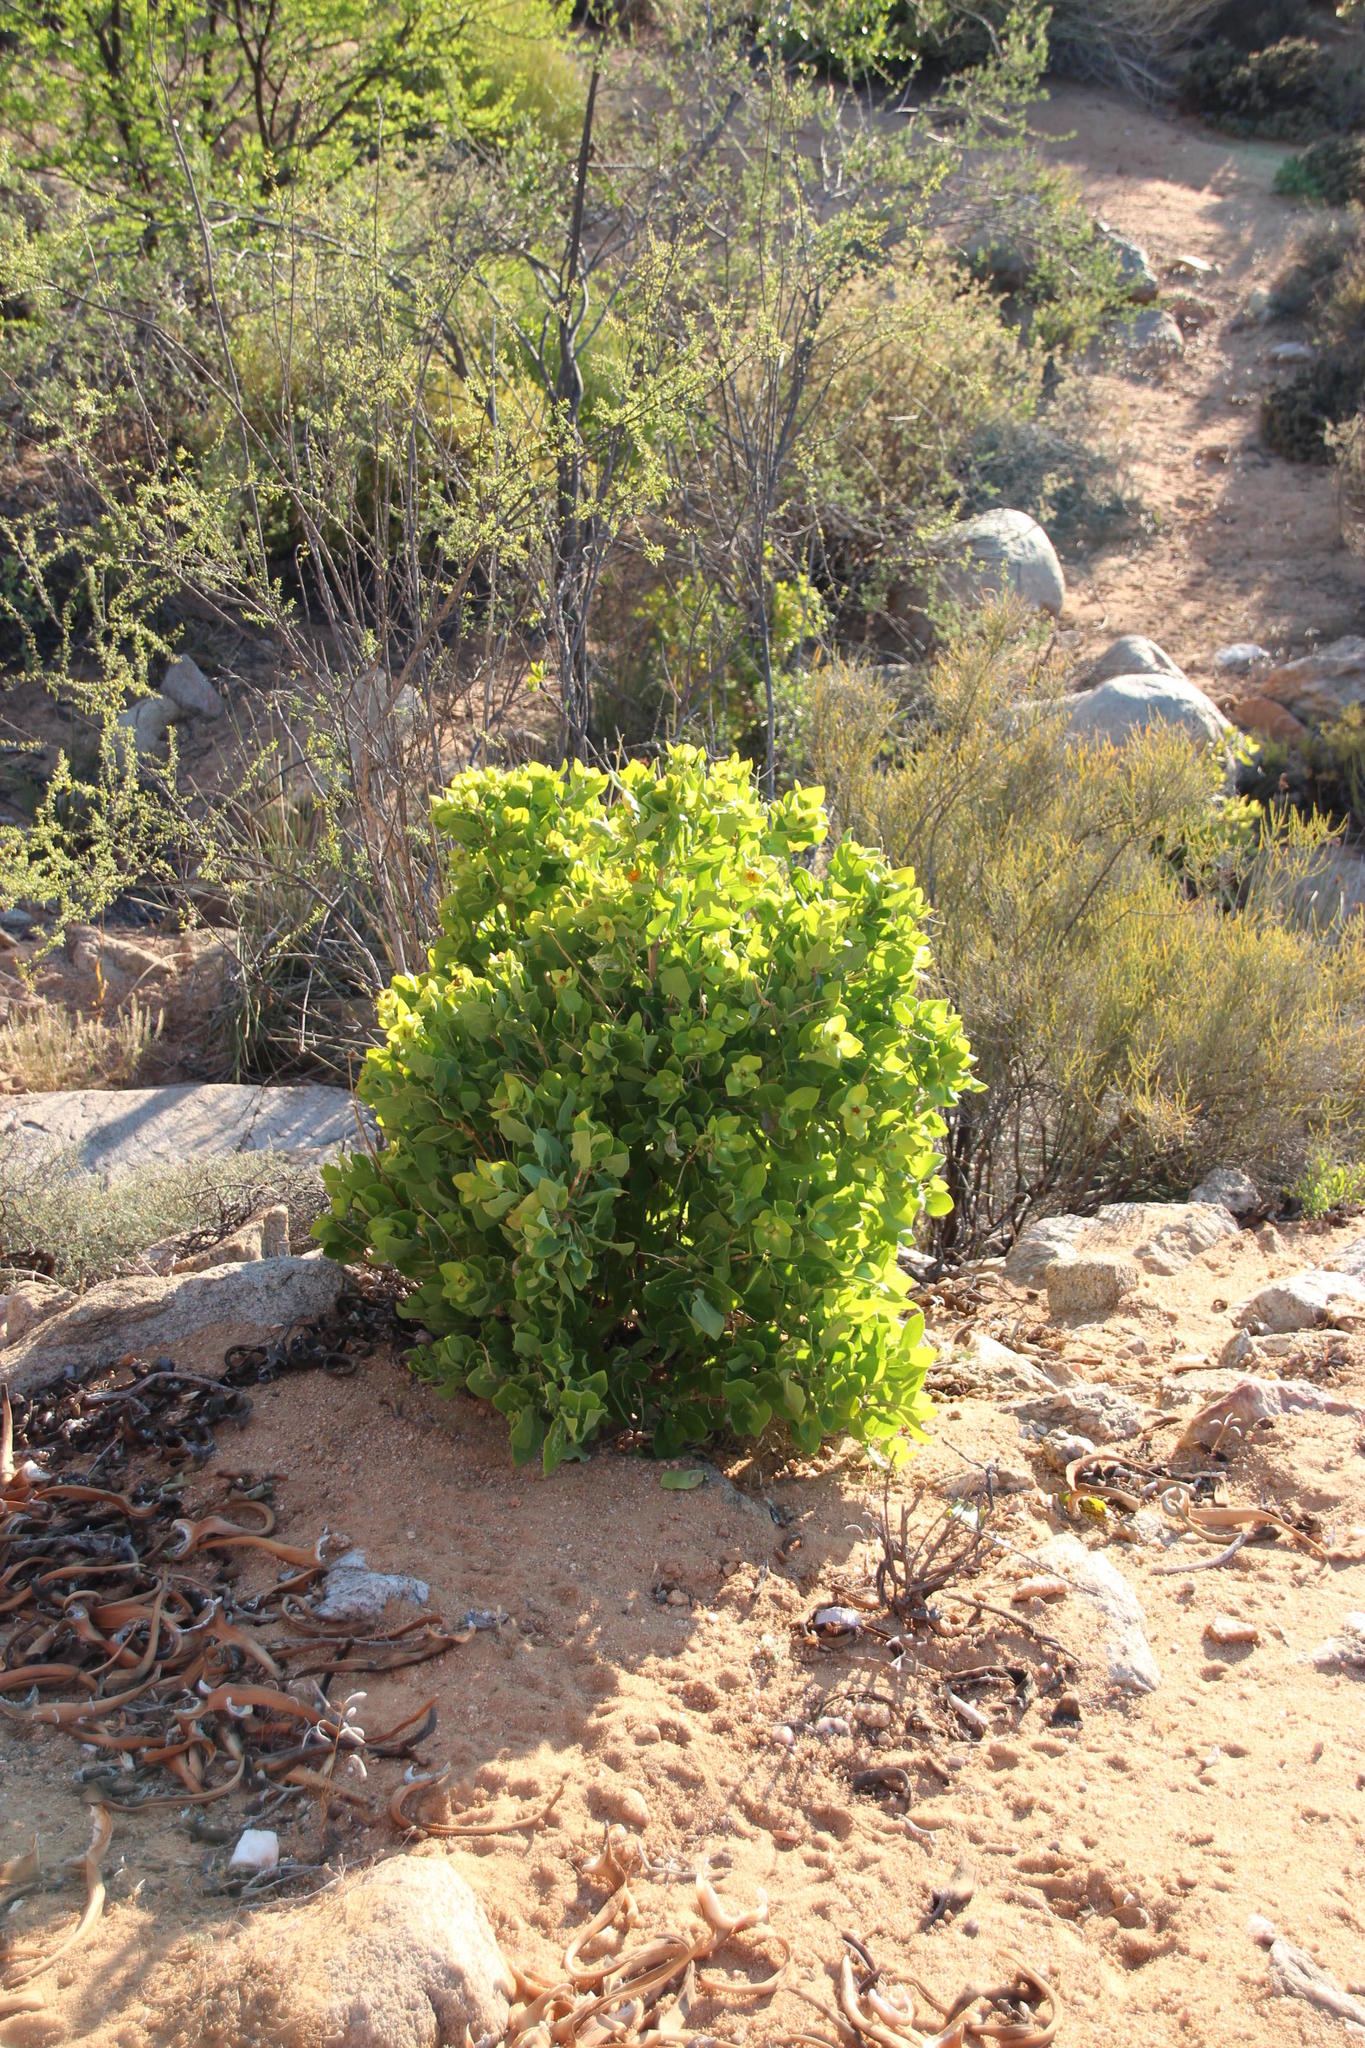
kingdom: Plantae
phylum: Tracheophyta
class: Magnoliopsida
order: Asterales
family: Asteraceae
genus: Didelta
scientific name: Didelta spinosa
